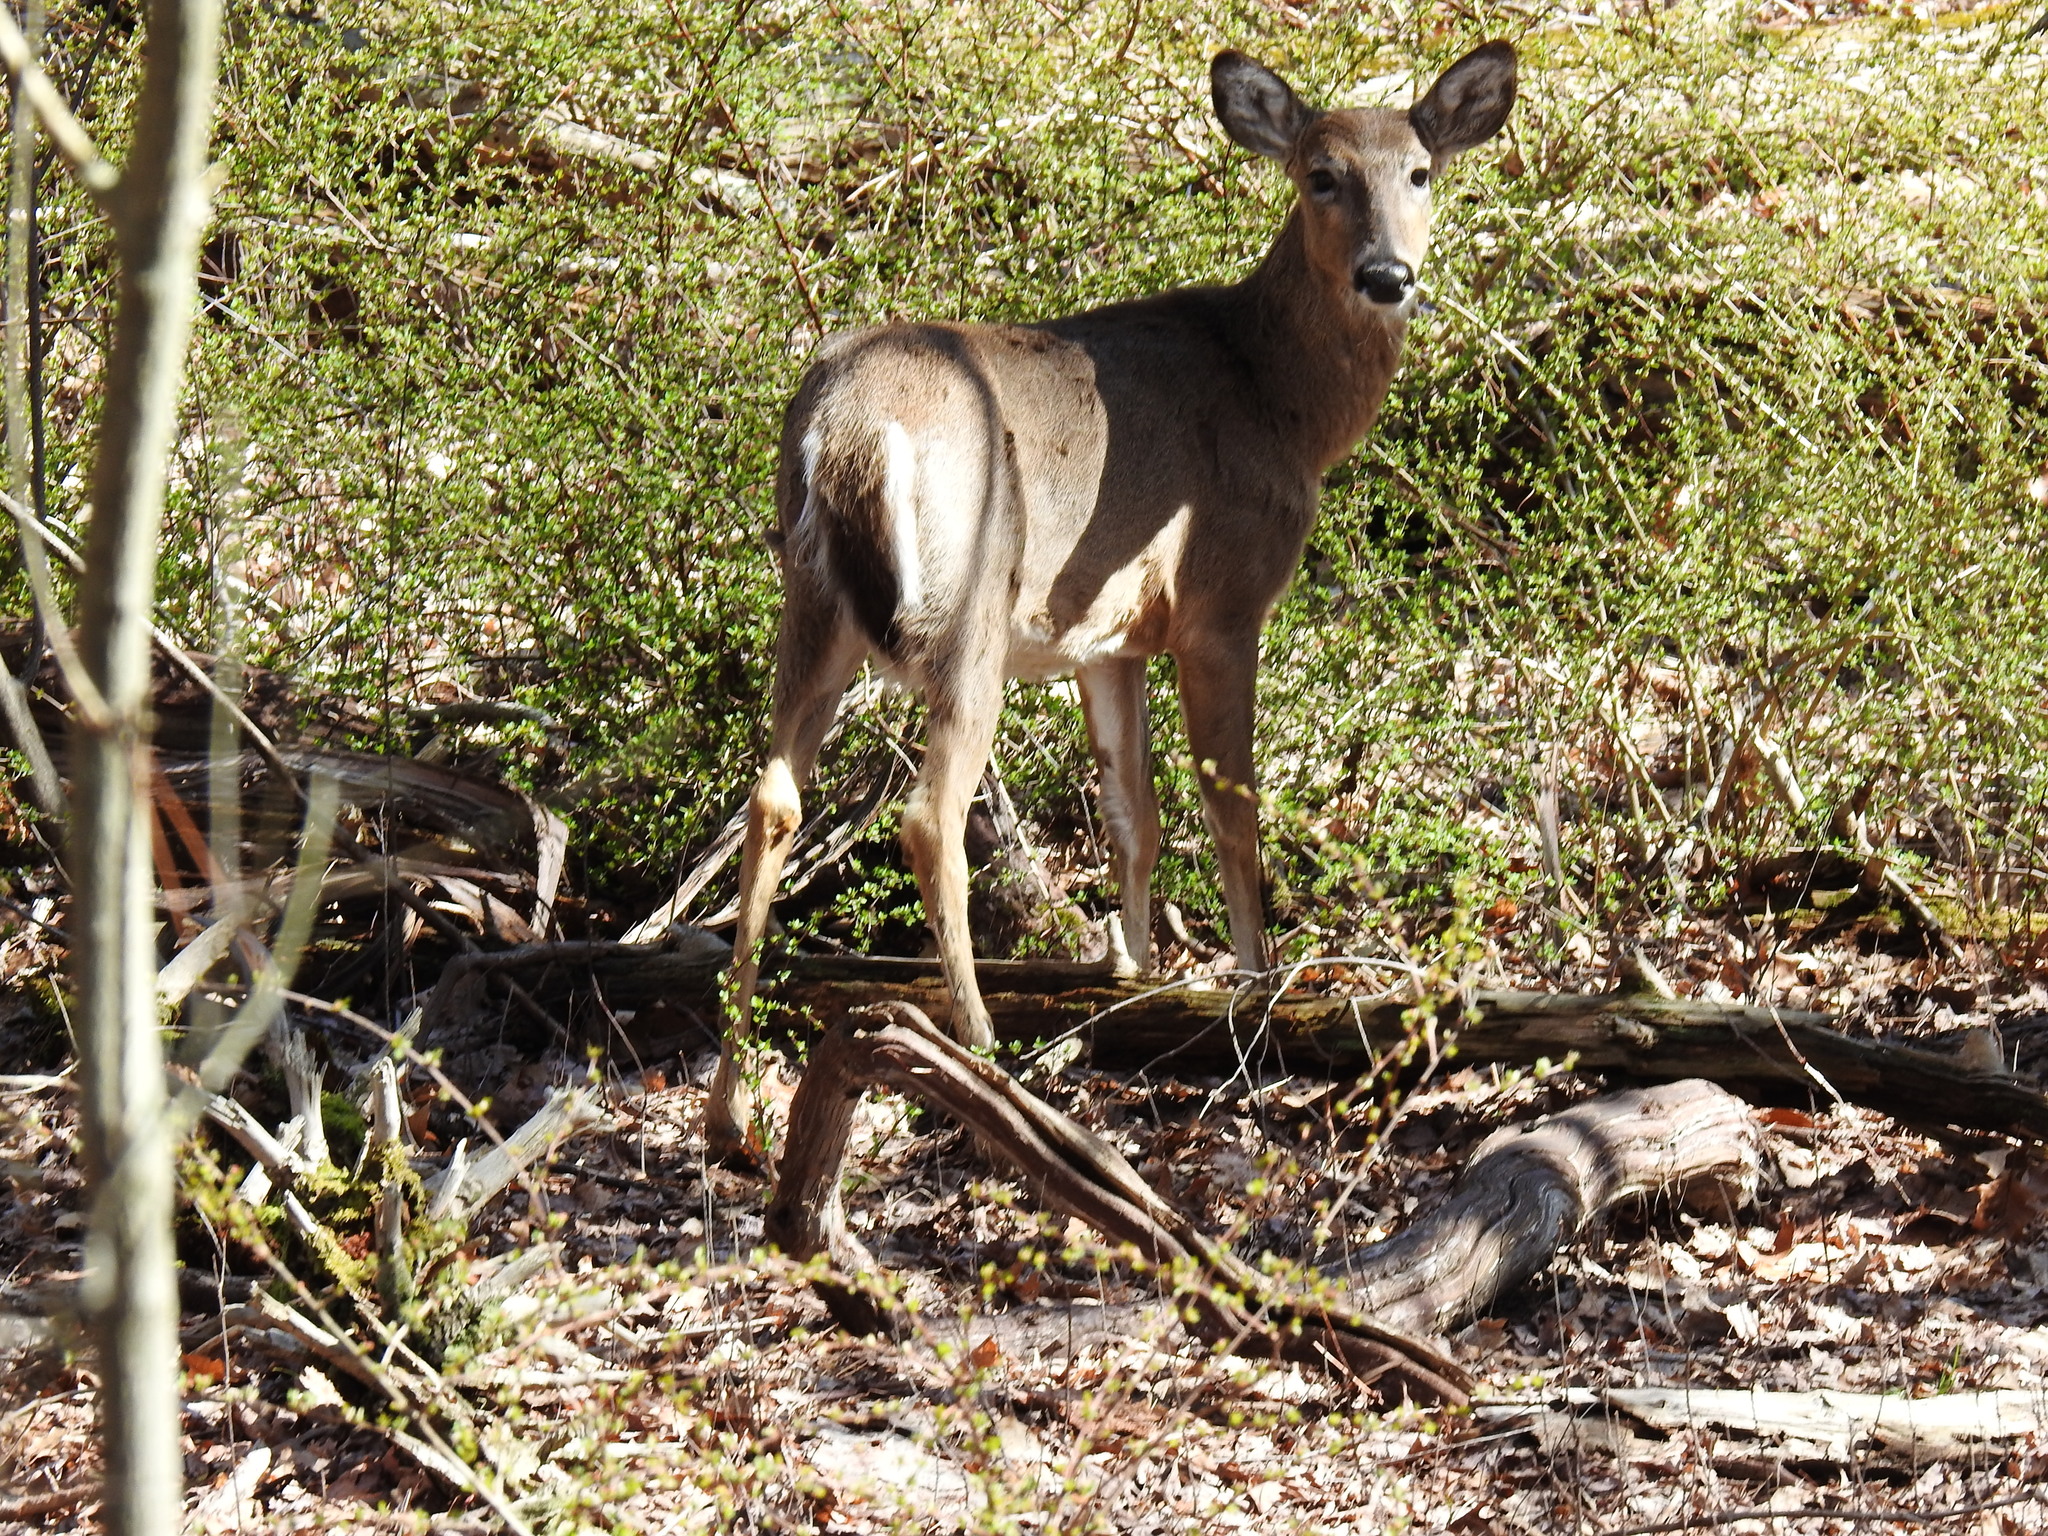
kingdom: Animalia
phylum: Chordata
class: Mammalia
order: Artiodactyla
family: Cervidae
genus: Odocoileus
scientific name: Odocoileus virginianus
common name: White-tailed deer
